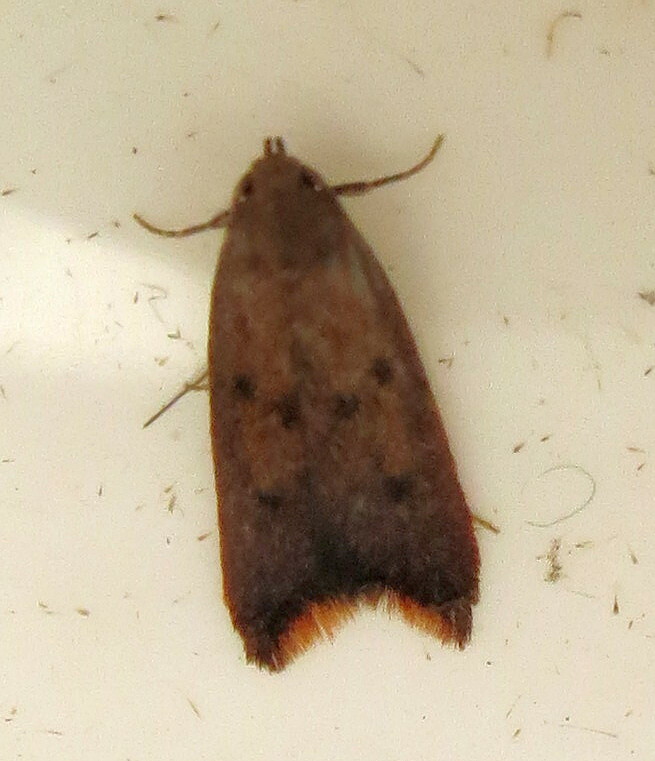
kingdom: Animalia
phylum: Arthropoda
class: Insecta
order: Lepidoptera
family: Oecophoridae
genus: Tachystola
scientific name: Tachystola acroxantha
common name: Ruddy streak
